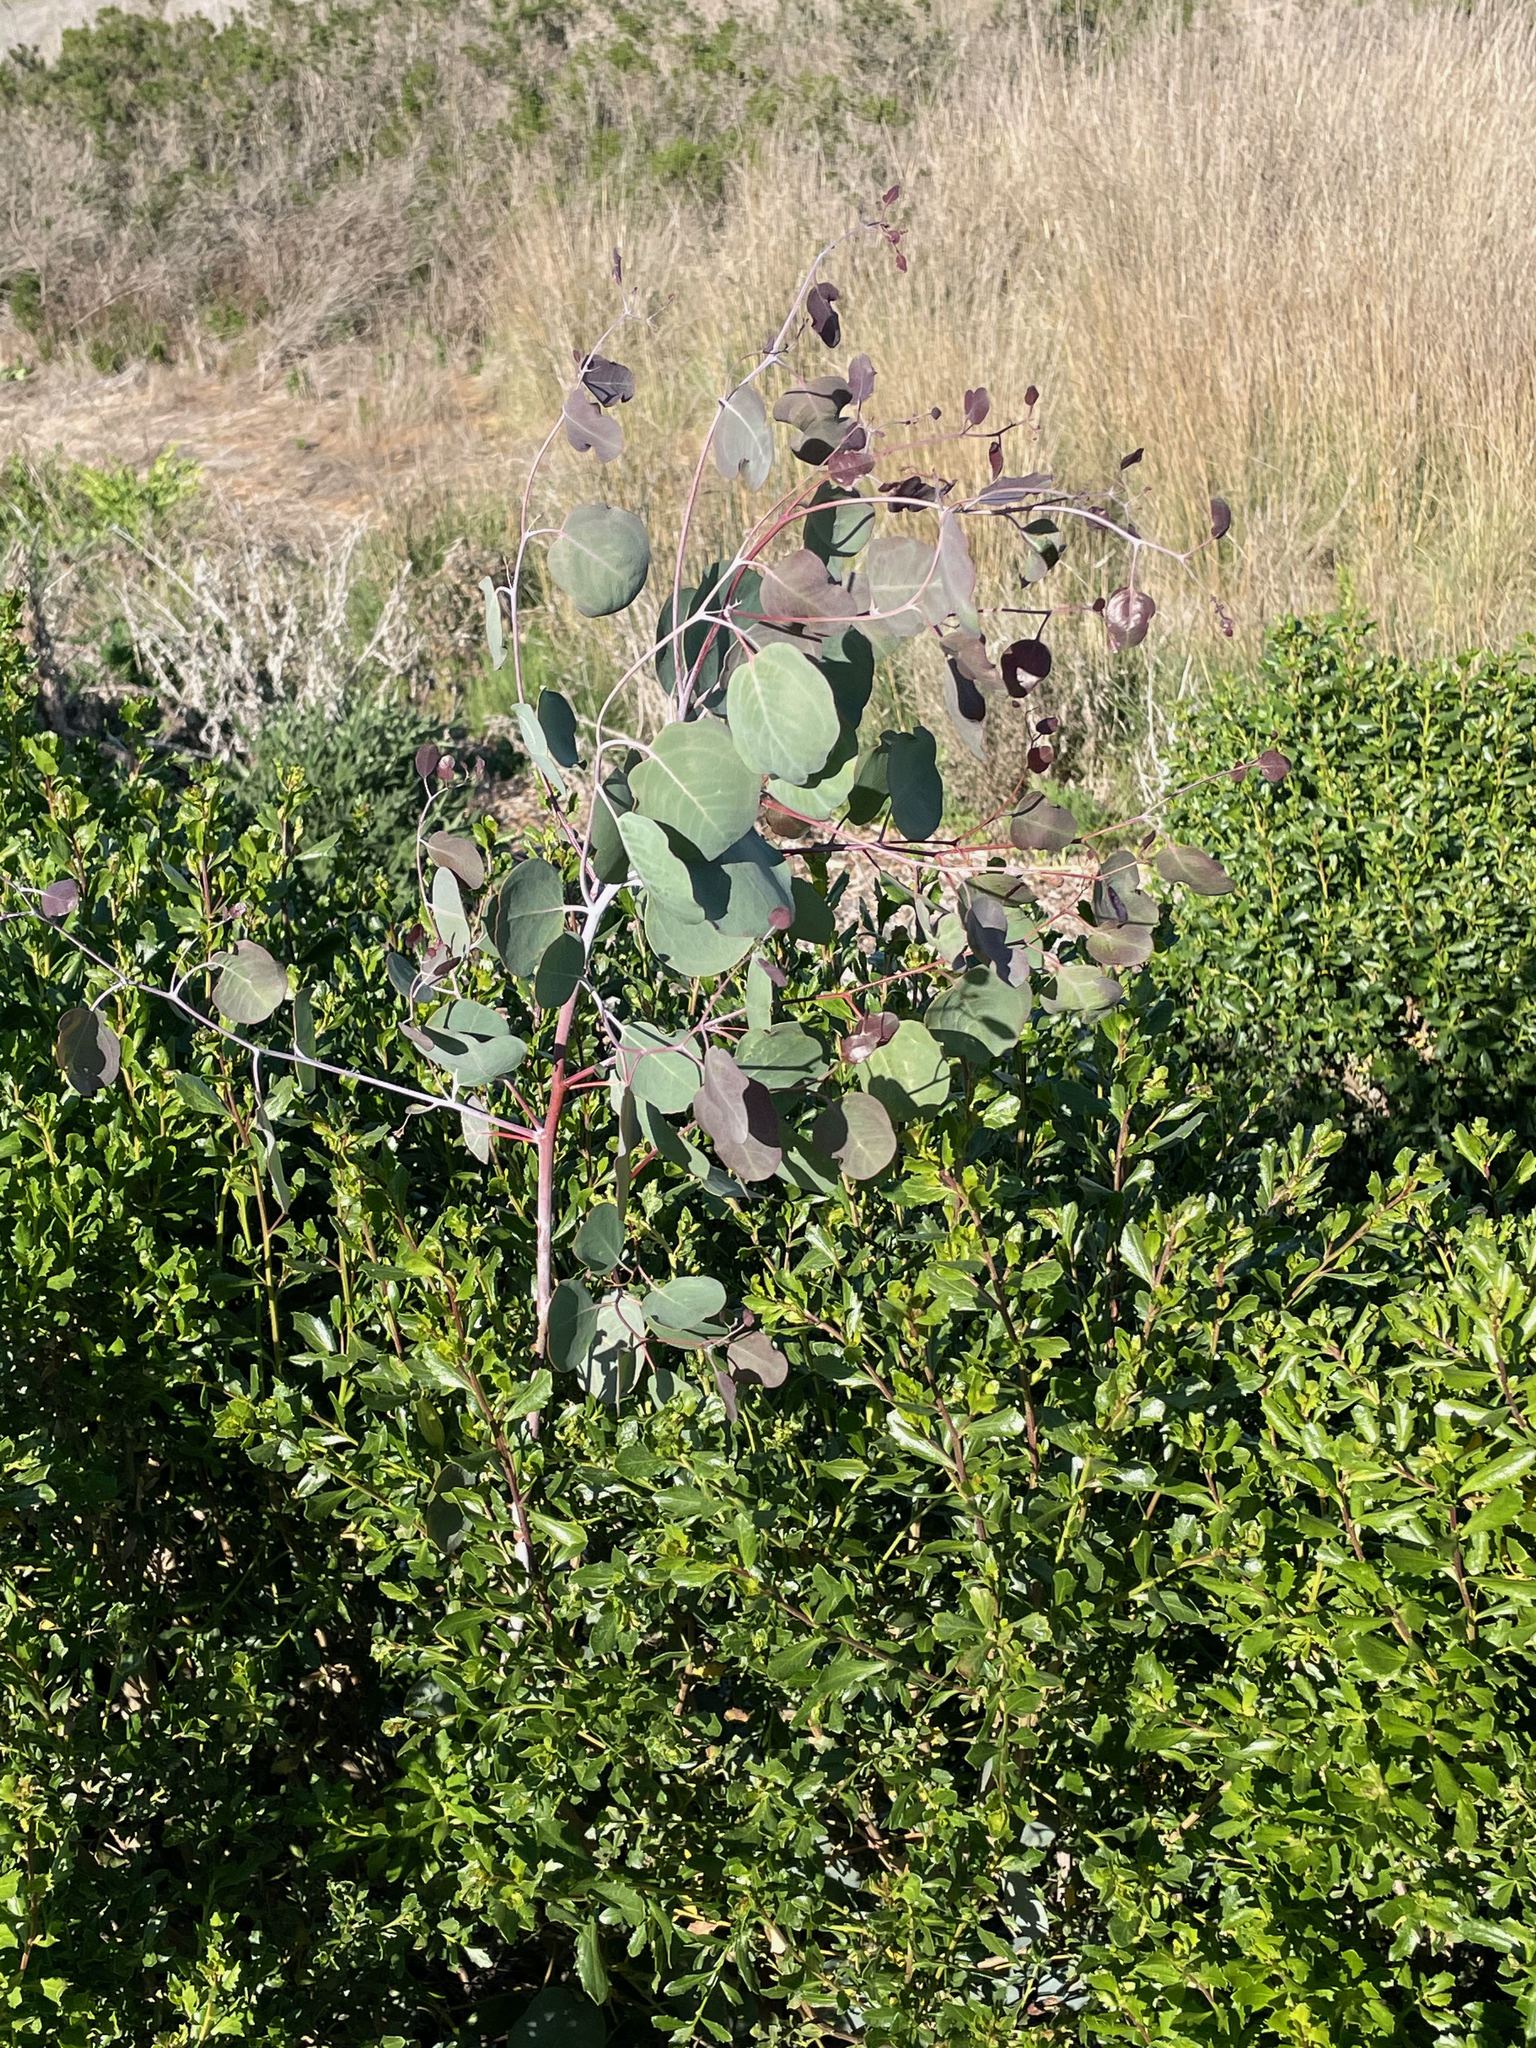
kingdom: Plantae
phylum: Tracheophyta
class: Magnoliopsida
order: Myrtales
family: Myrtaceae
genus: Eucalyptus
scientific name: Eucalyptus polyanthemos
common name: Red-box
